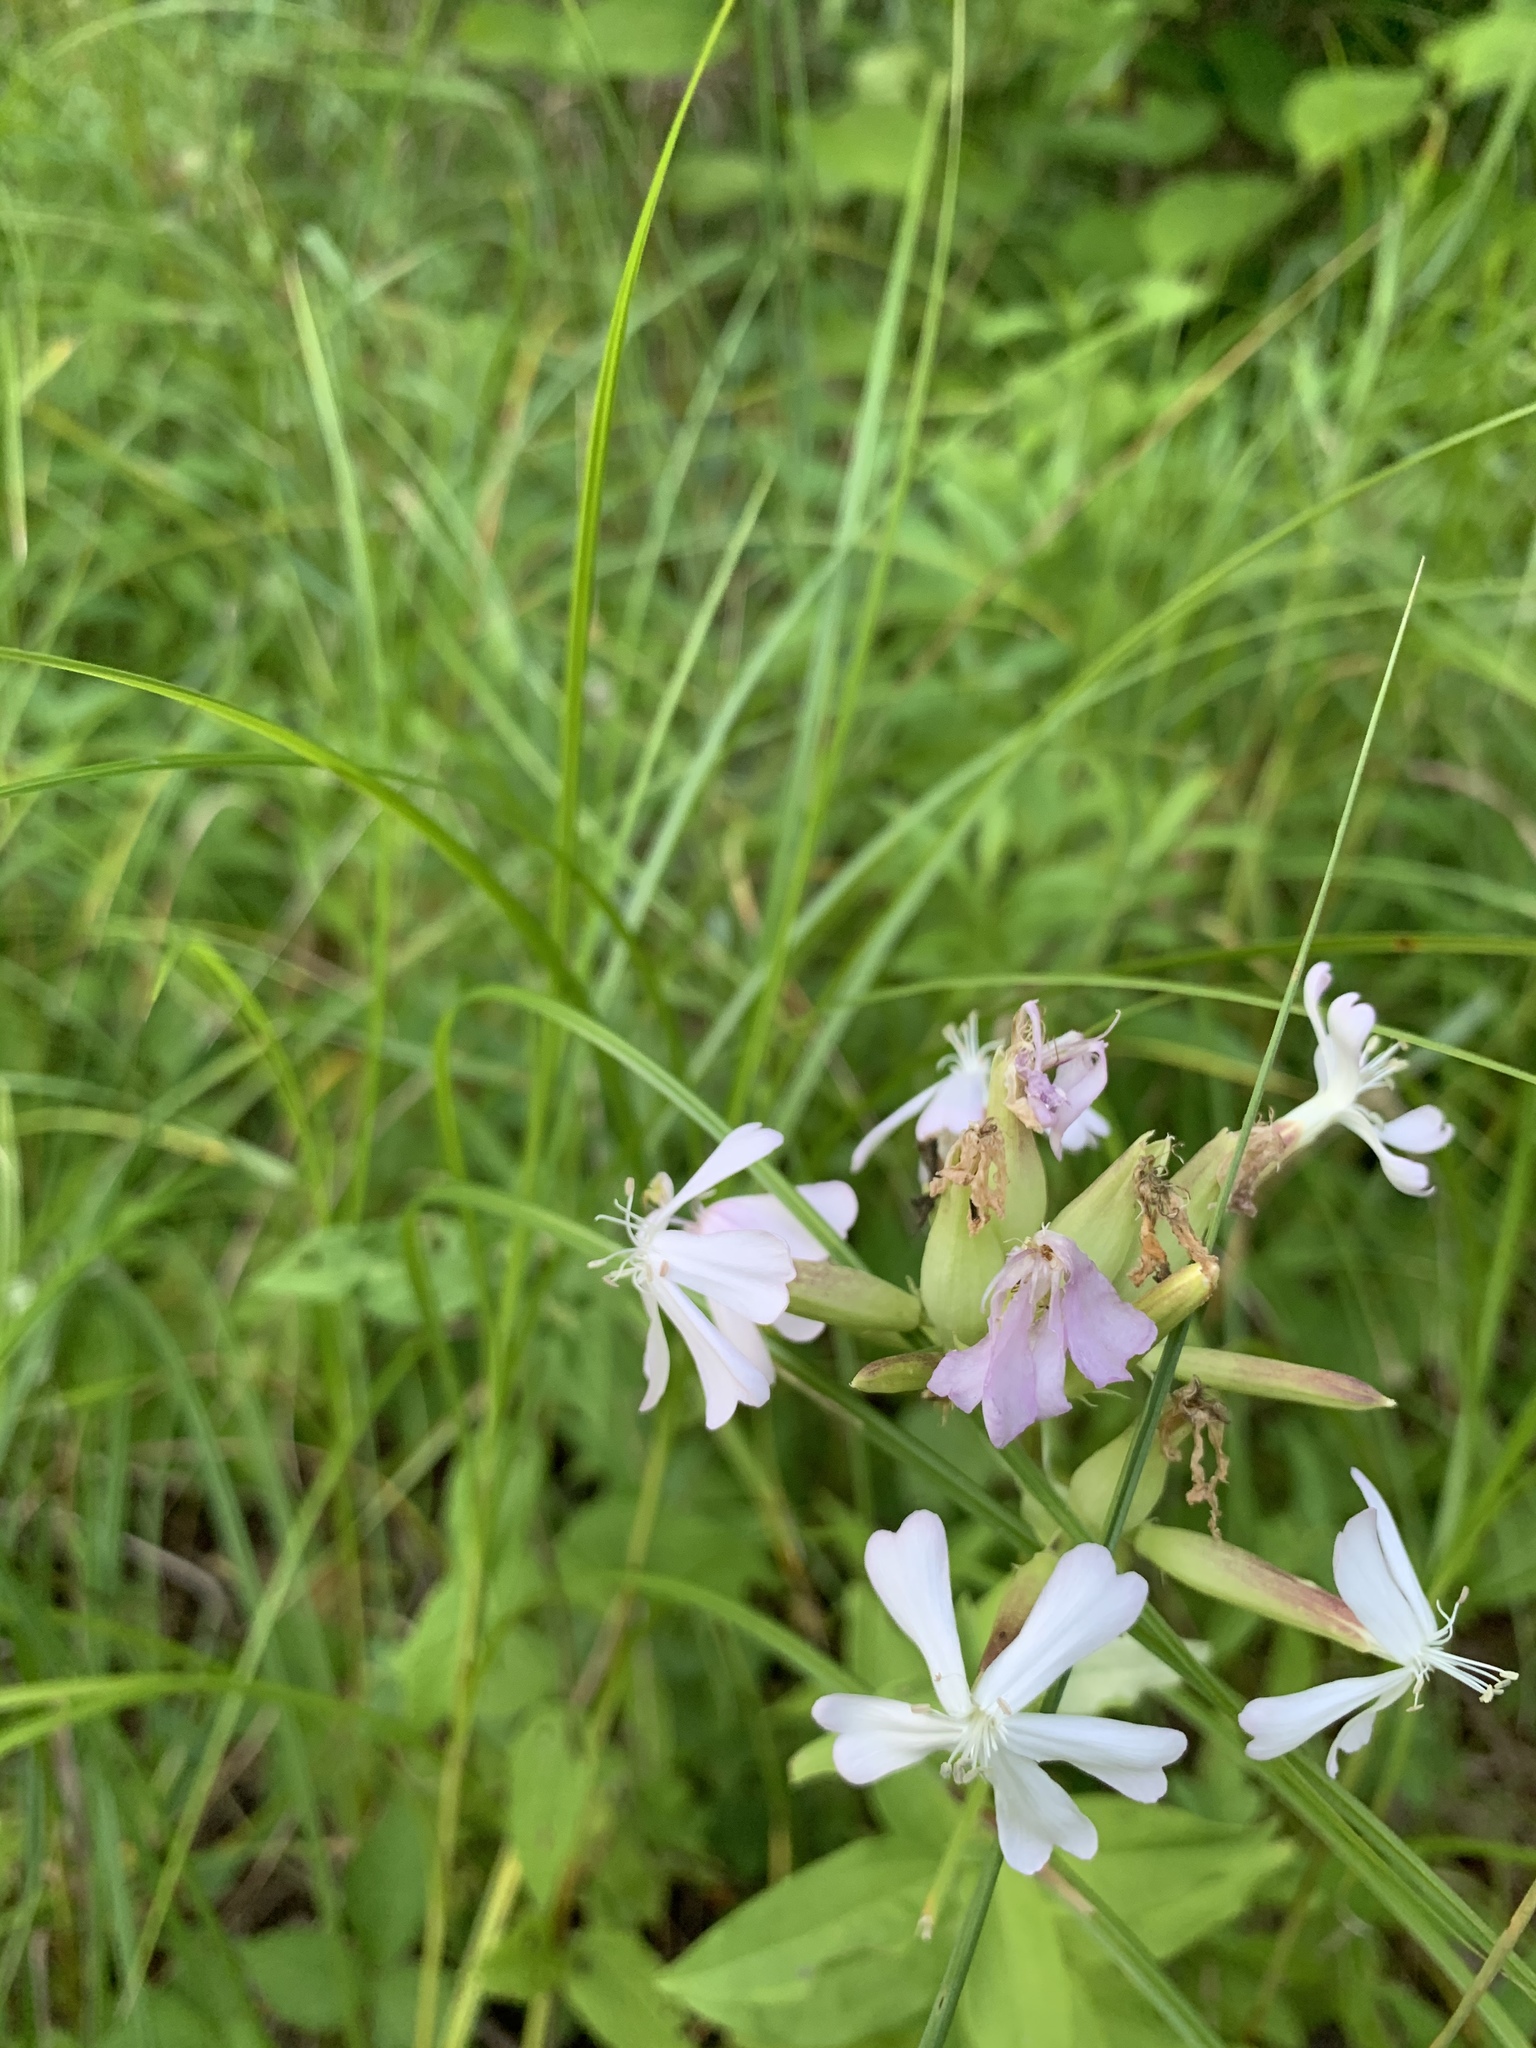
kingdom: Plantae
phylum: Tracheophyta
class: Magnoliopsida
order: Caryophyllales
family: Caryophyllaceae
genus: Saponaria
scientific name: Saponaria officinalis
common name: Soapwort
